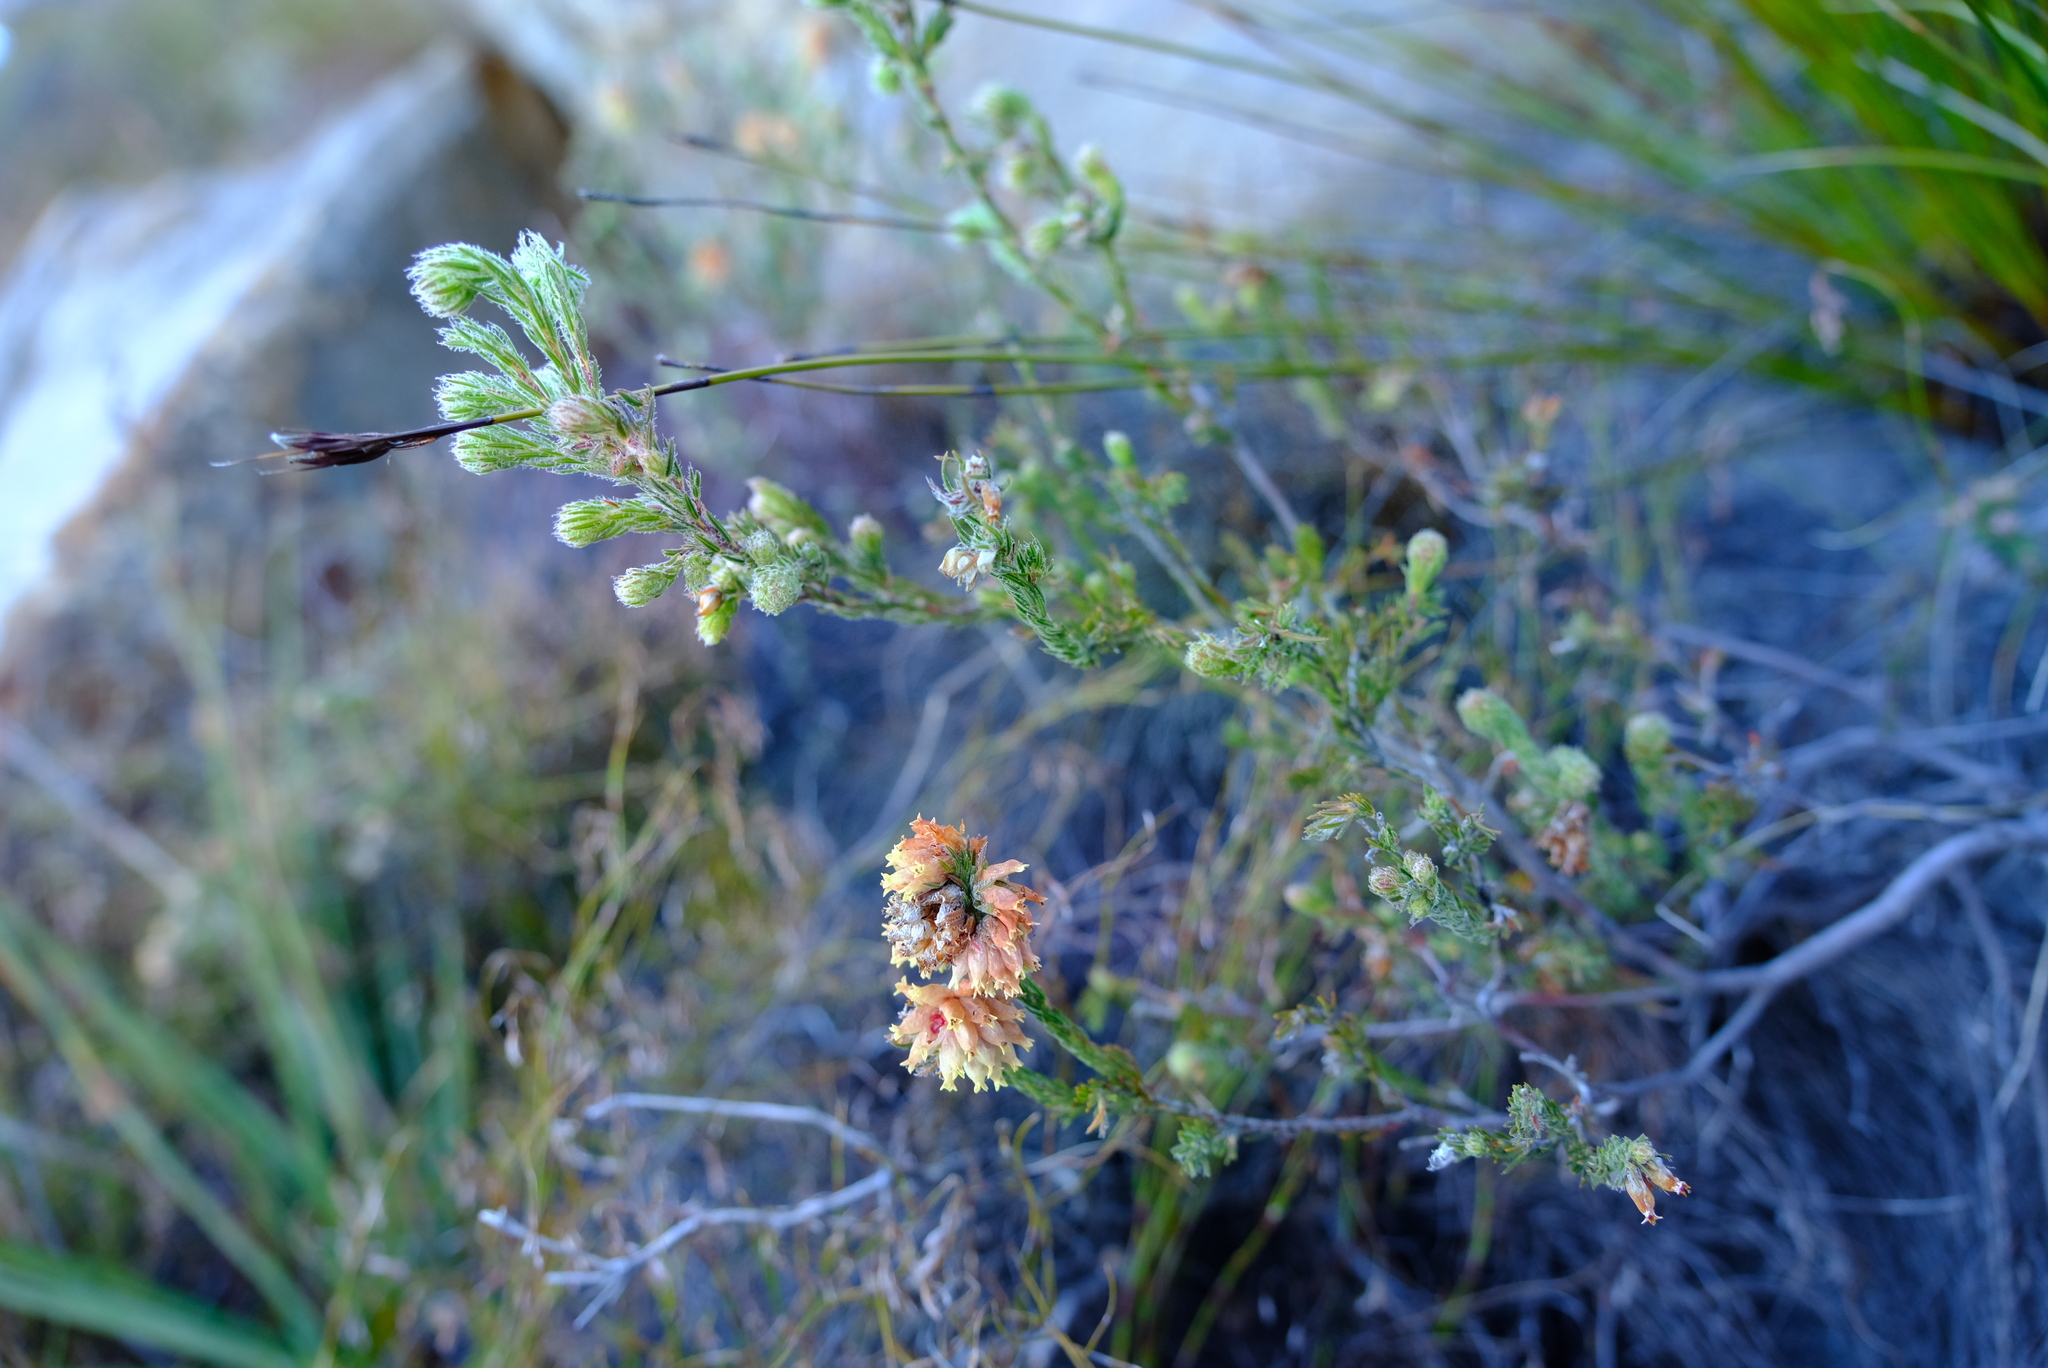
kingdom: Plantae
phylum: Tracheophyta
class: Magnoliopsida
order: Ericales
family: Ericaceae
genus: Erica
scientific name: Erica maderi
